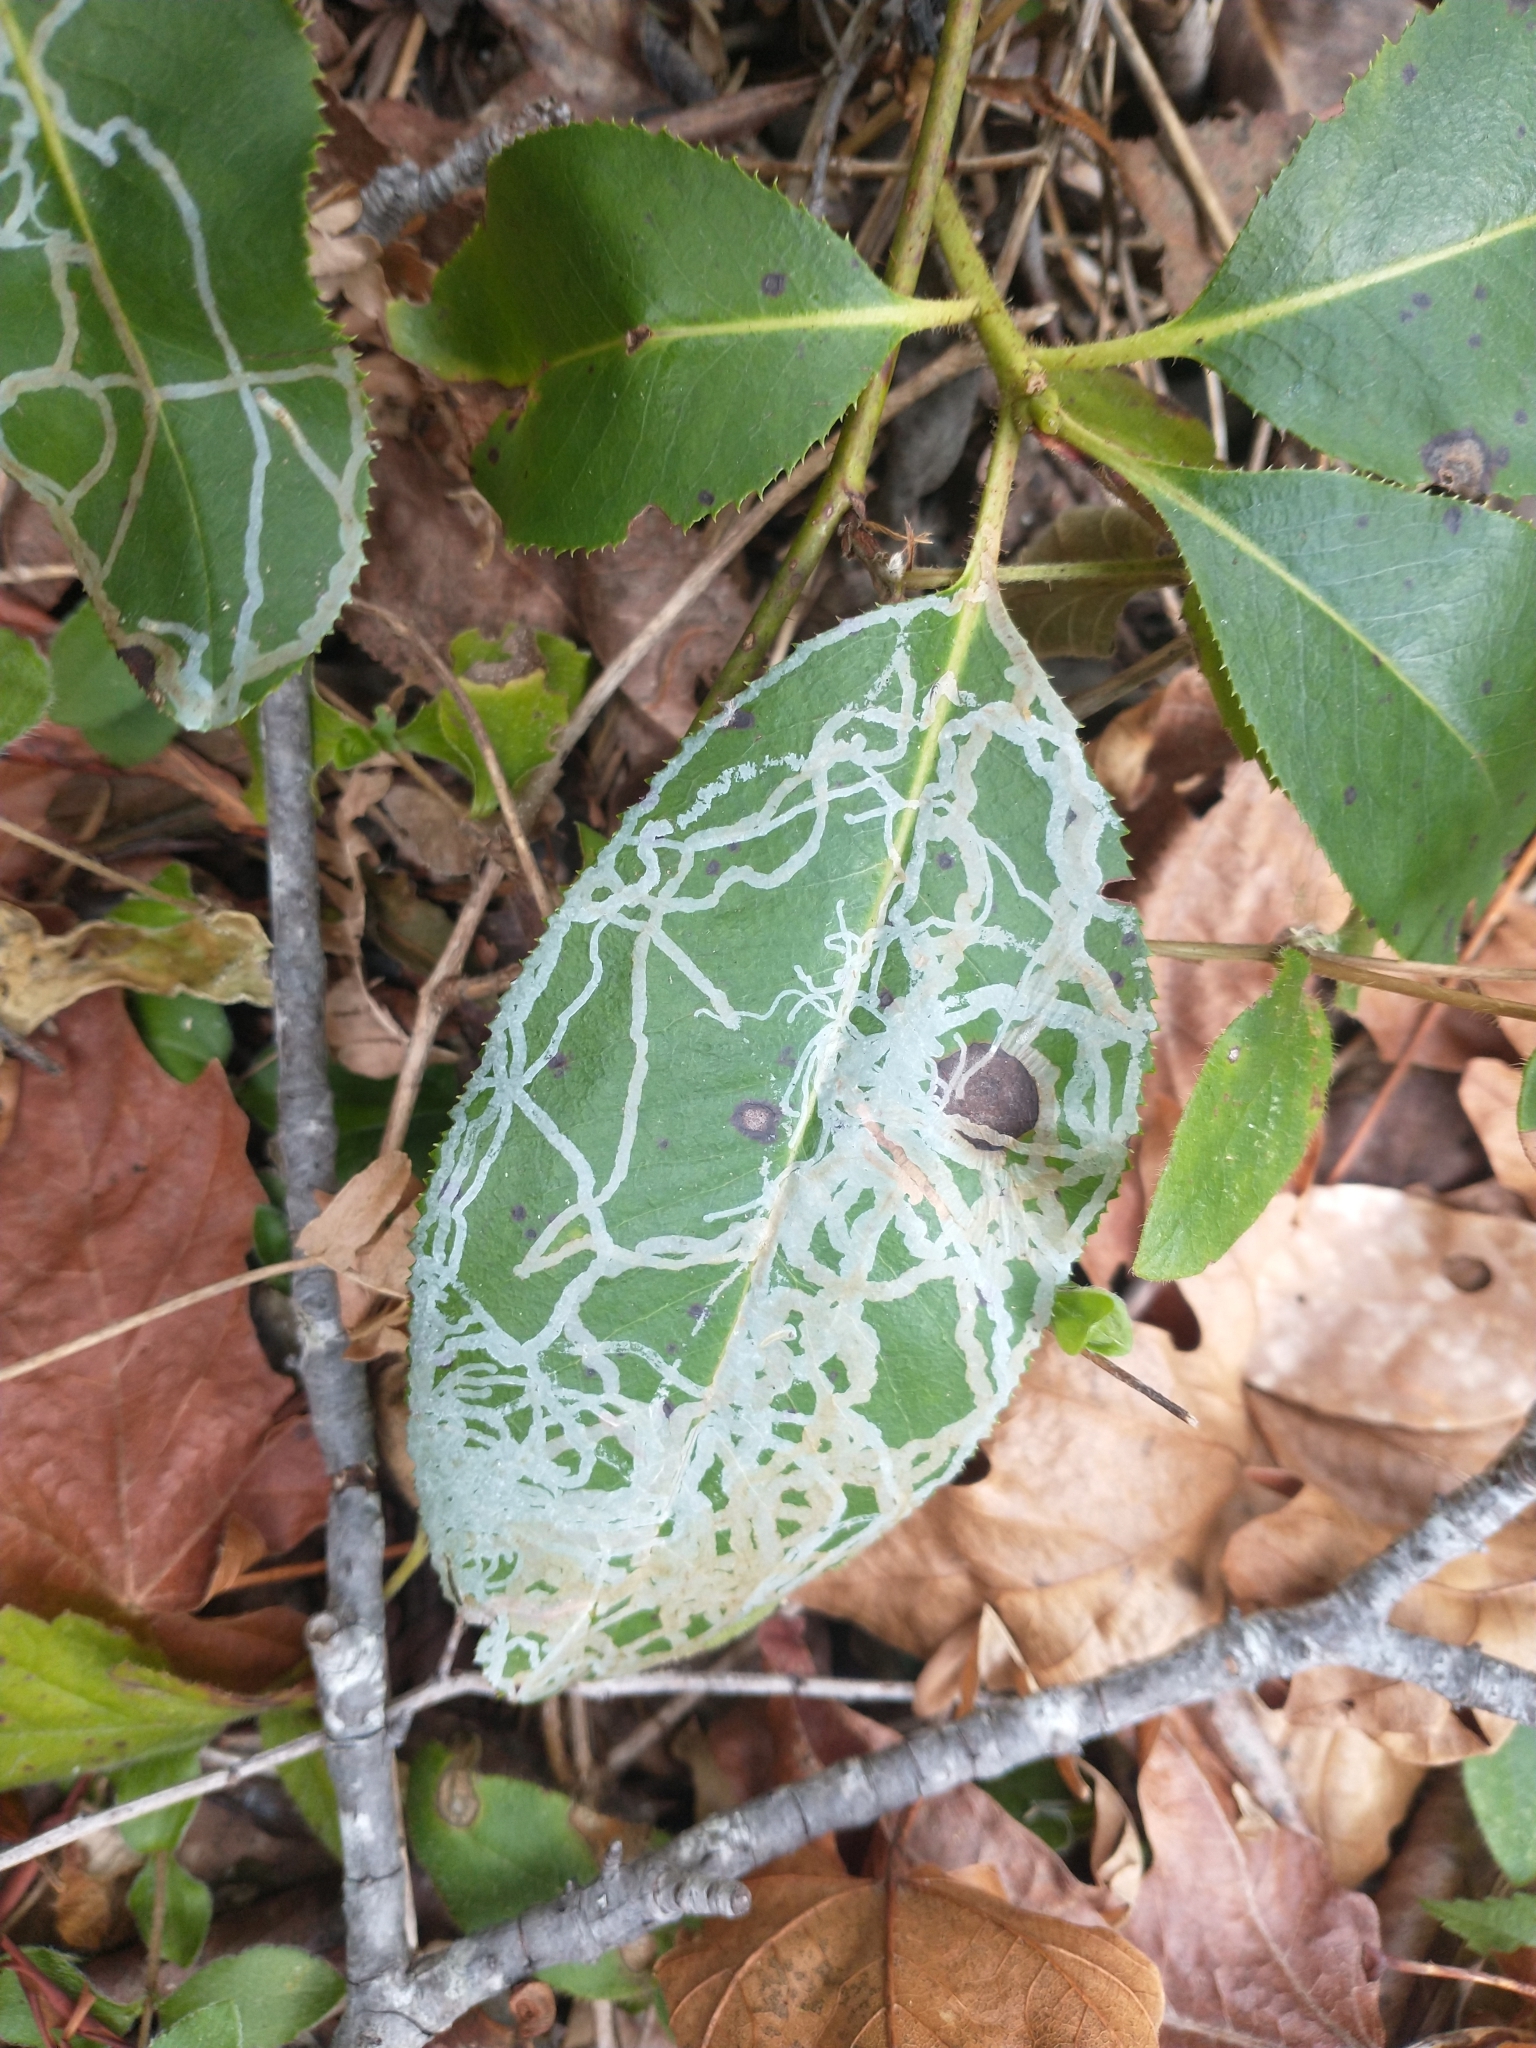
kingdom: Animalia
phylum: Arthropoda
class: Insecta
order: Lepidoptera
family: Gracillariidae
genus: Marmara
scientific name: Marmara arbutiella
